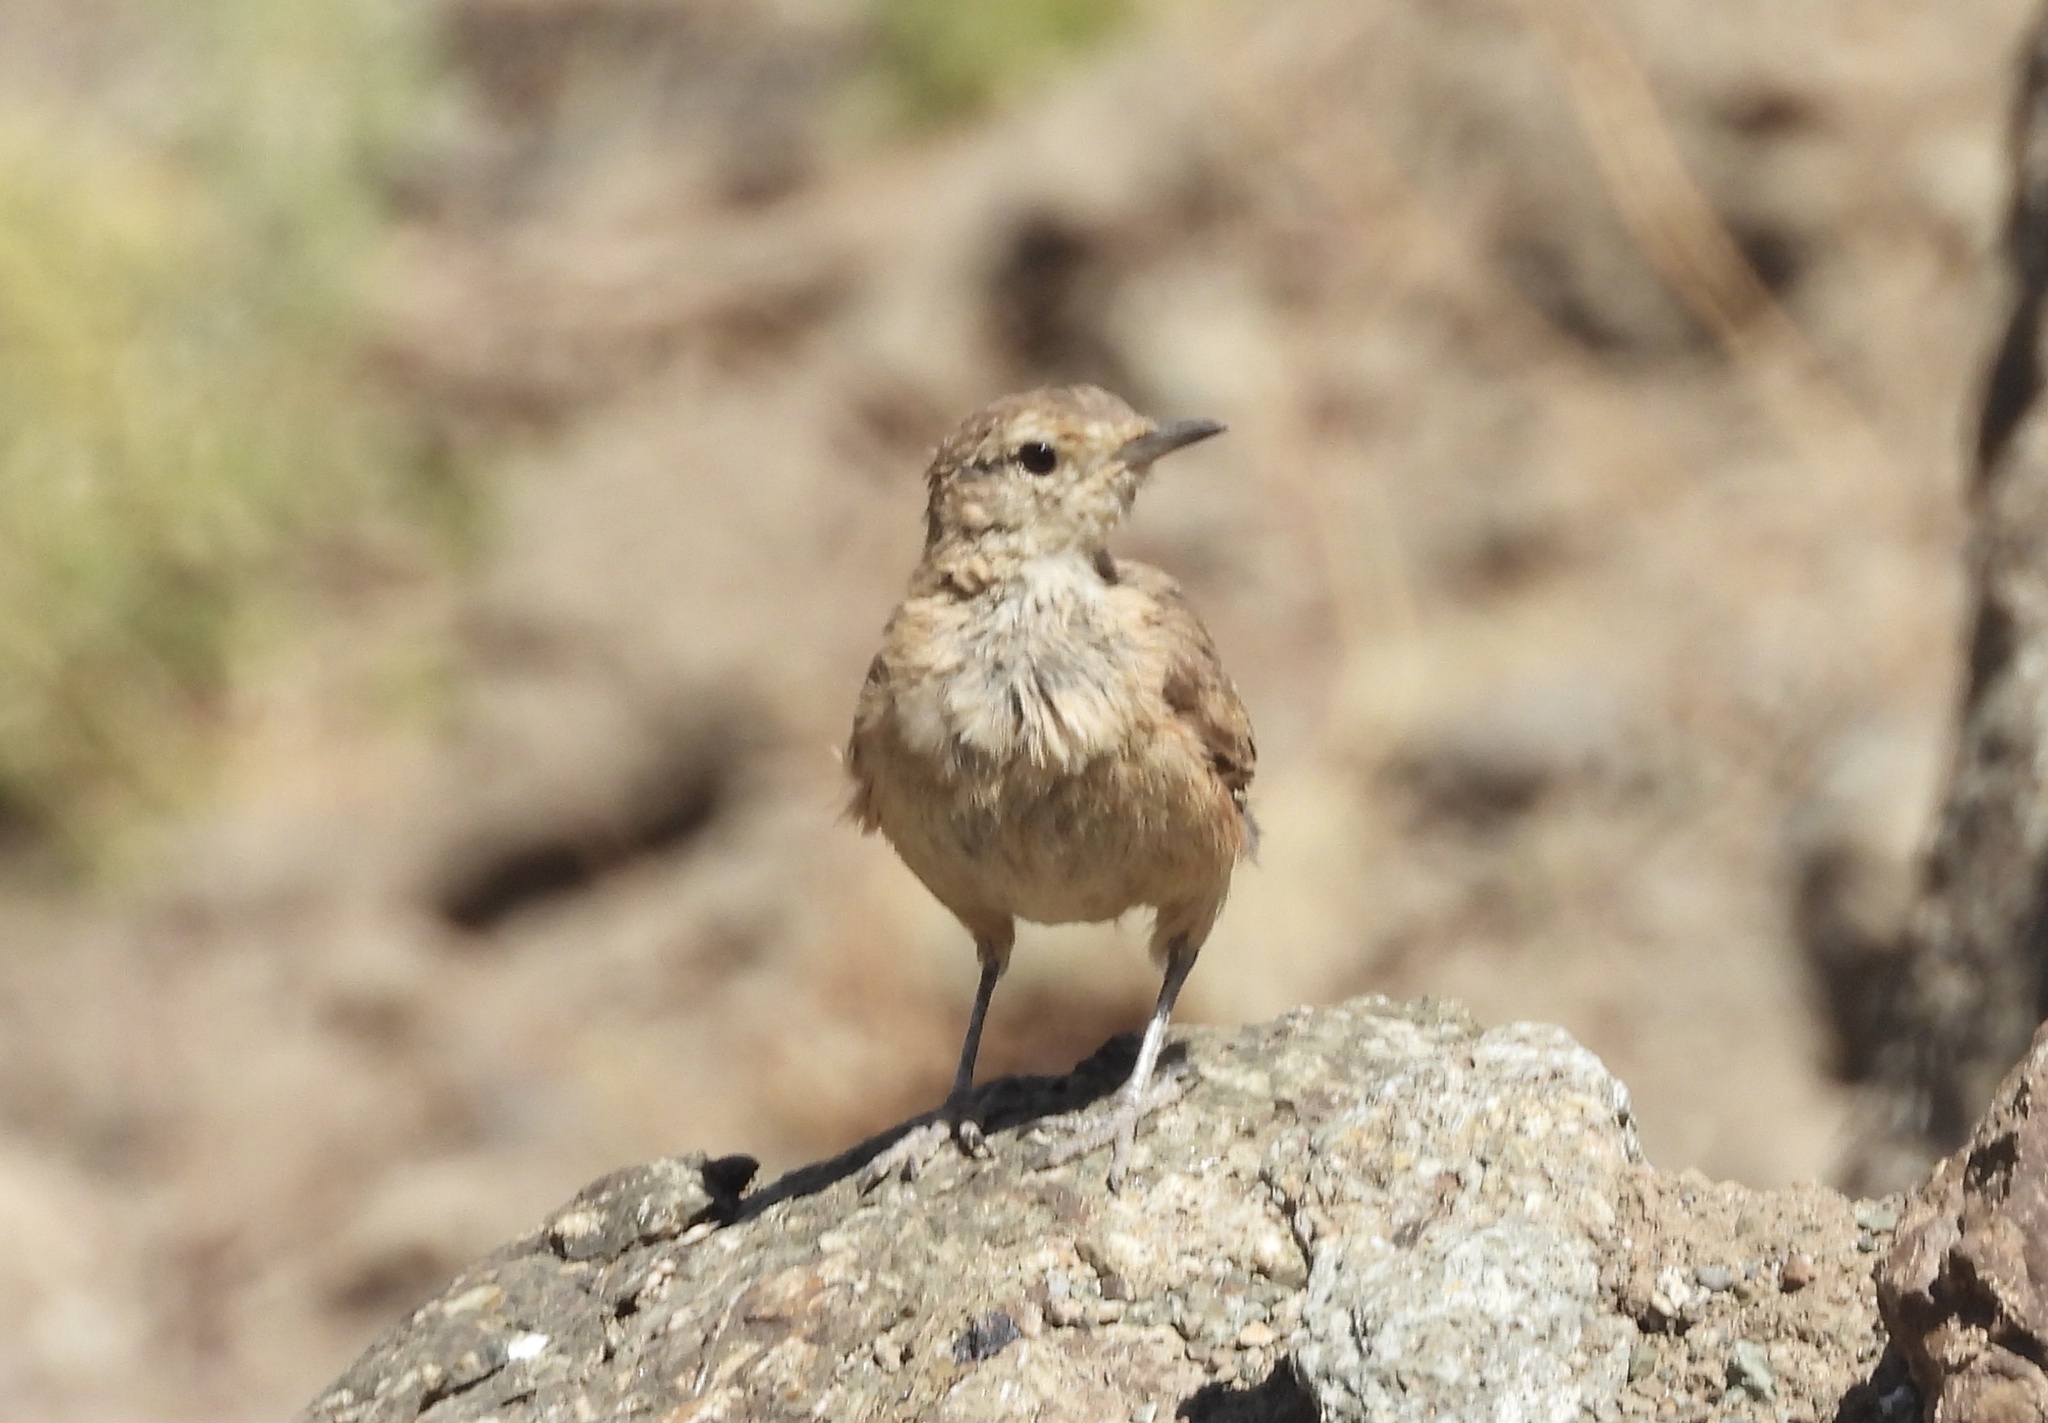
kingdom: Animalia
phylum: Chordata
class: Aves
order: Passeriformes
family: Furnariidae
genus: Geositta
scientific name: Geositta rufipennis
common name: Rufous-banded miner
